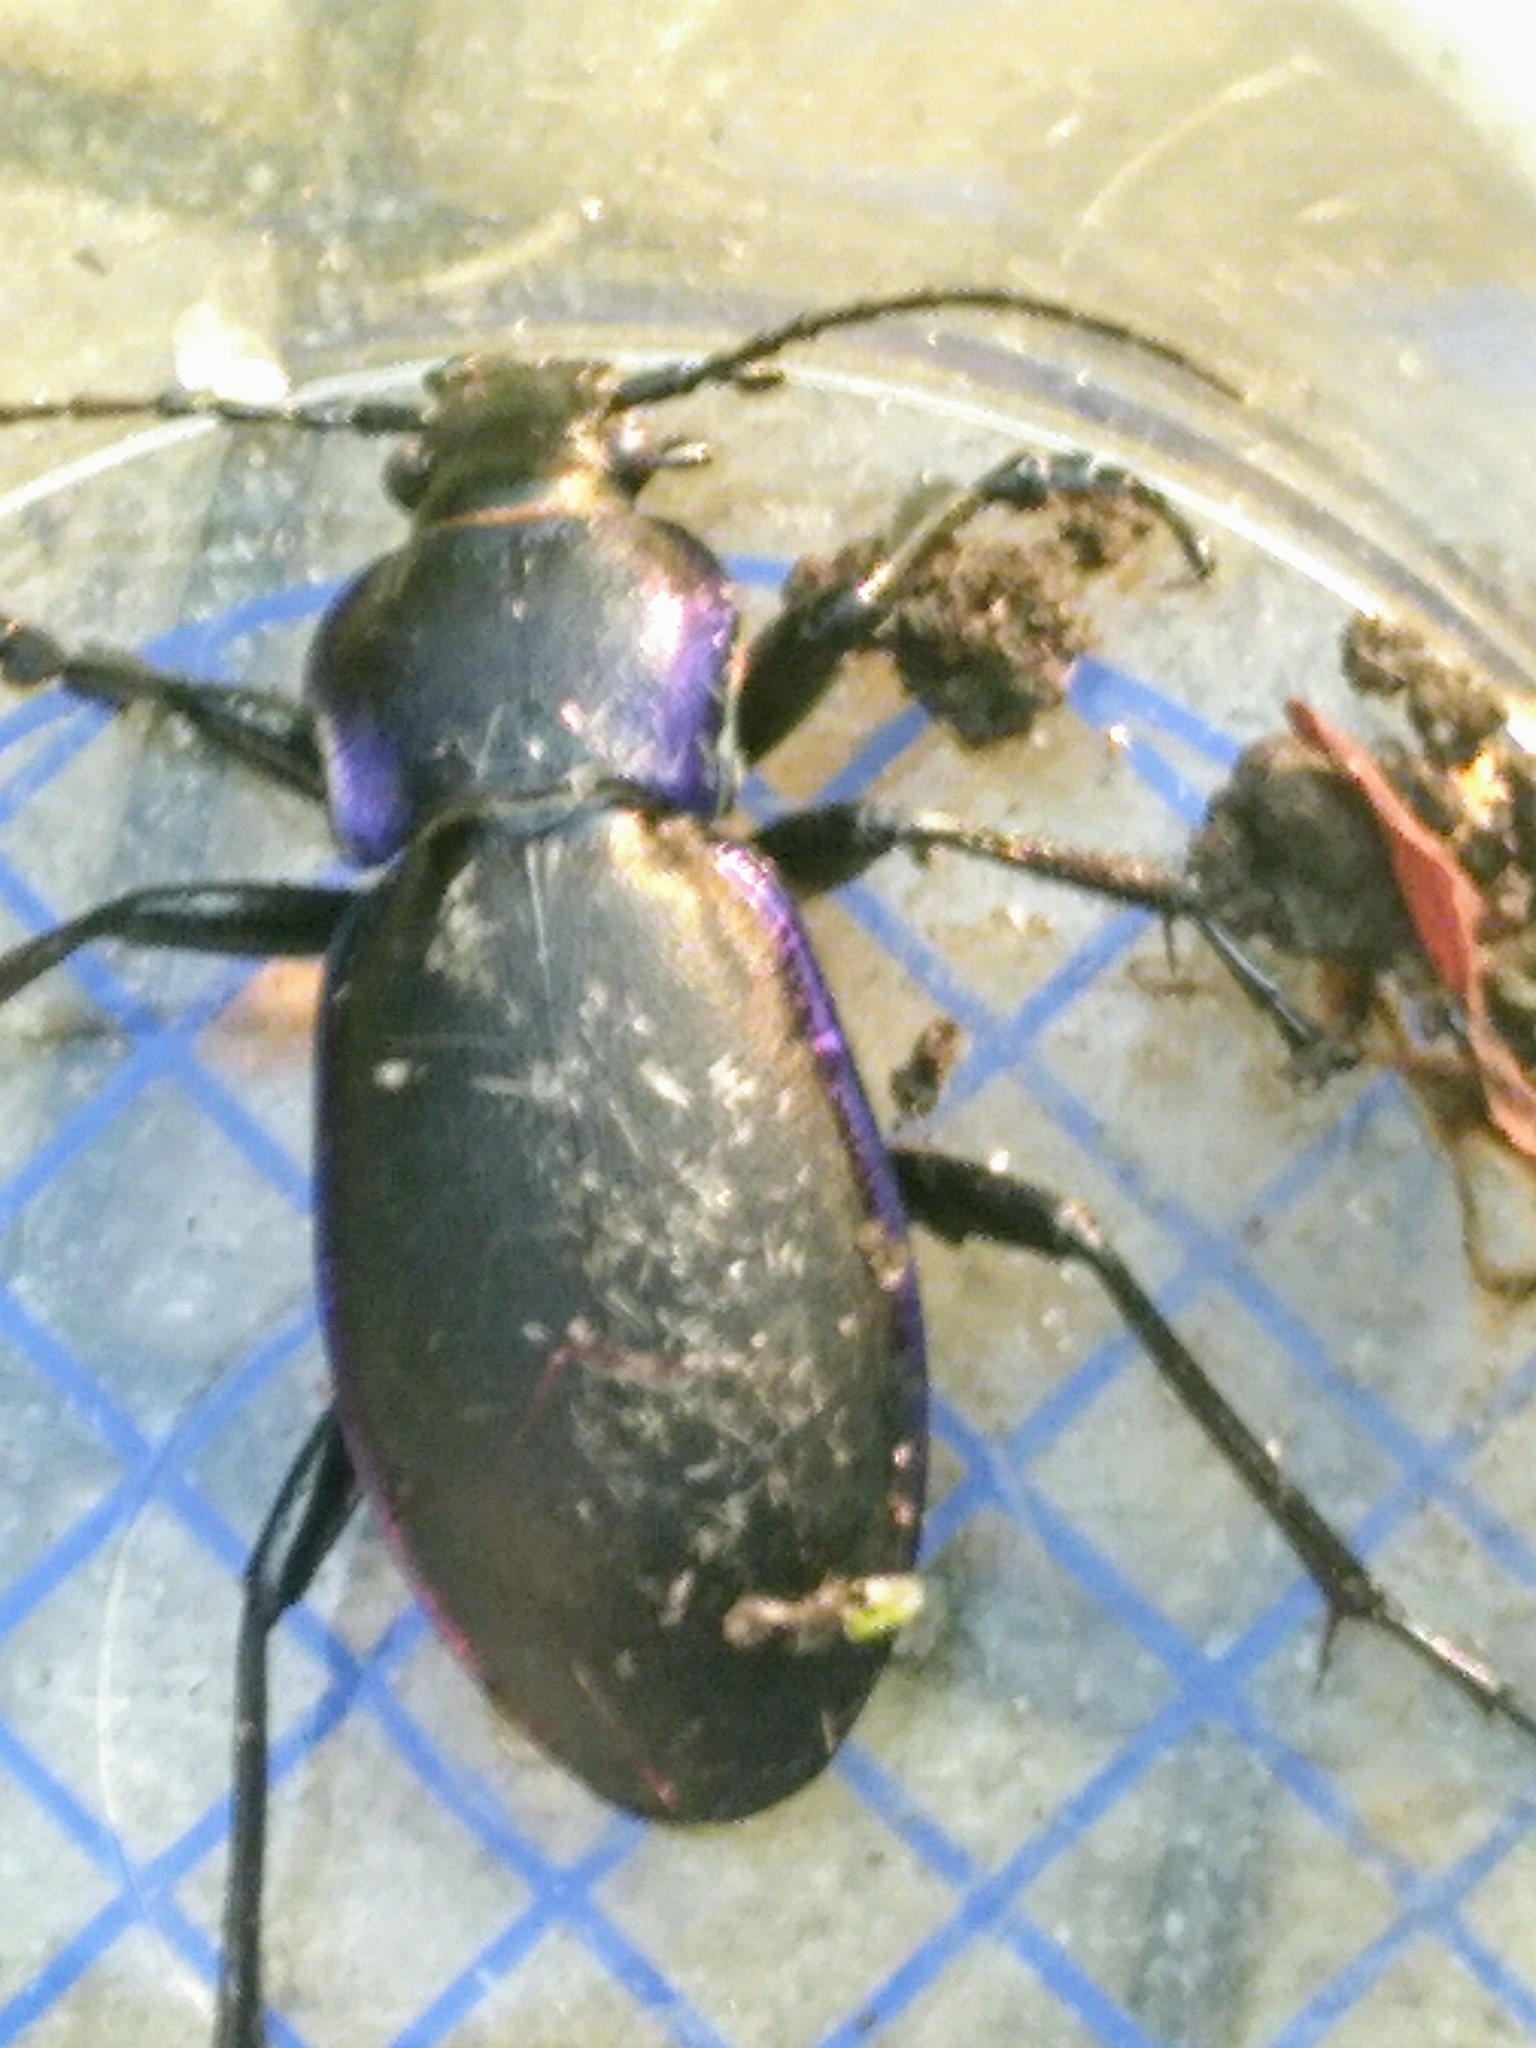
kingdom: Animalia
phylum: Arthropoda
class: Insecta
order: Coleoptera
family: Carabidae
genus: Carabus
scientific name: Carabus violaceus
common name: Violet ground beetle
